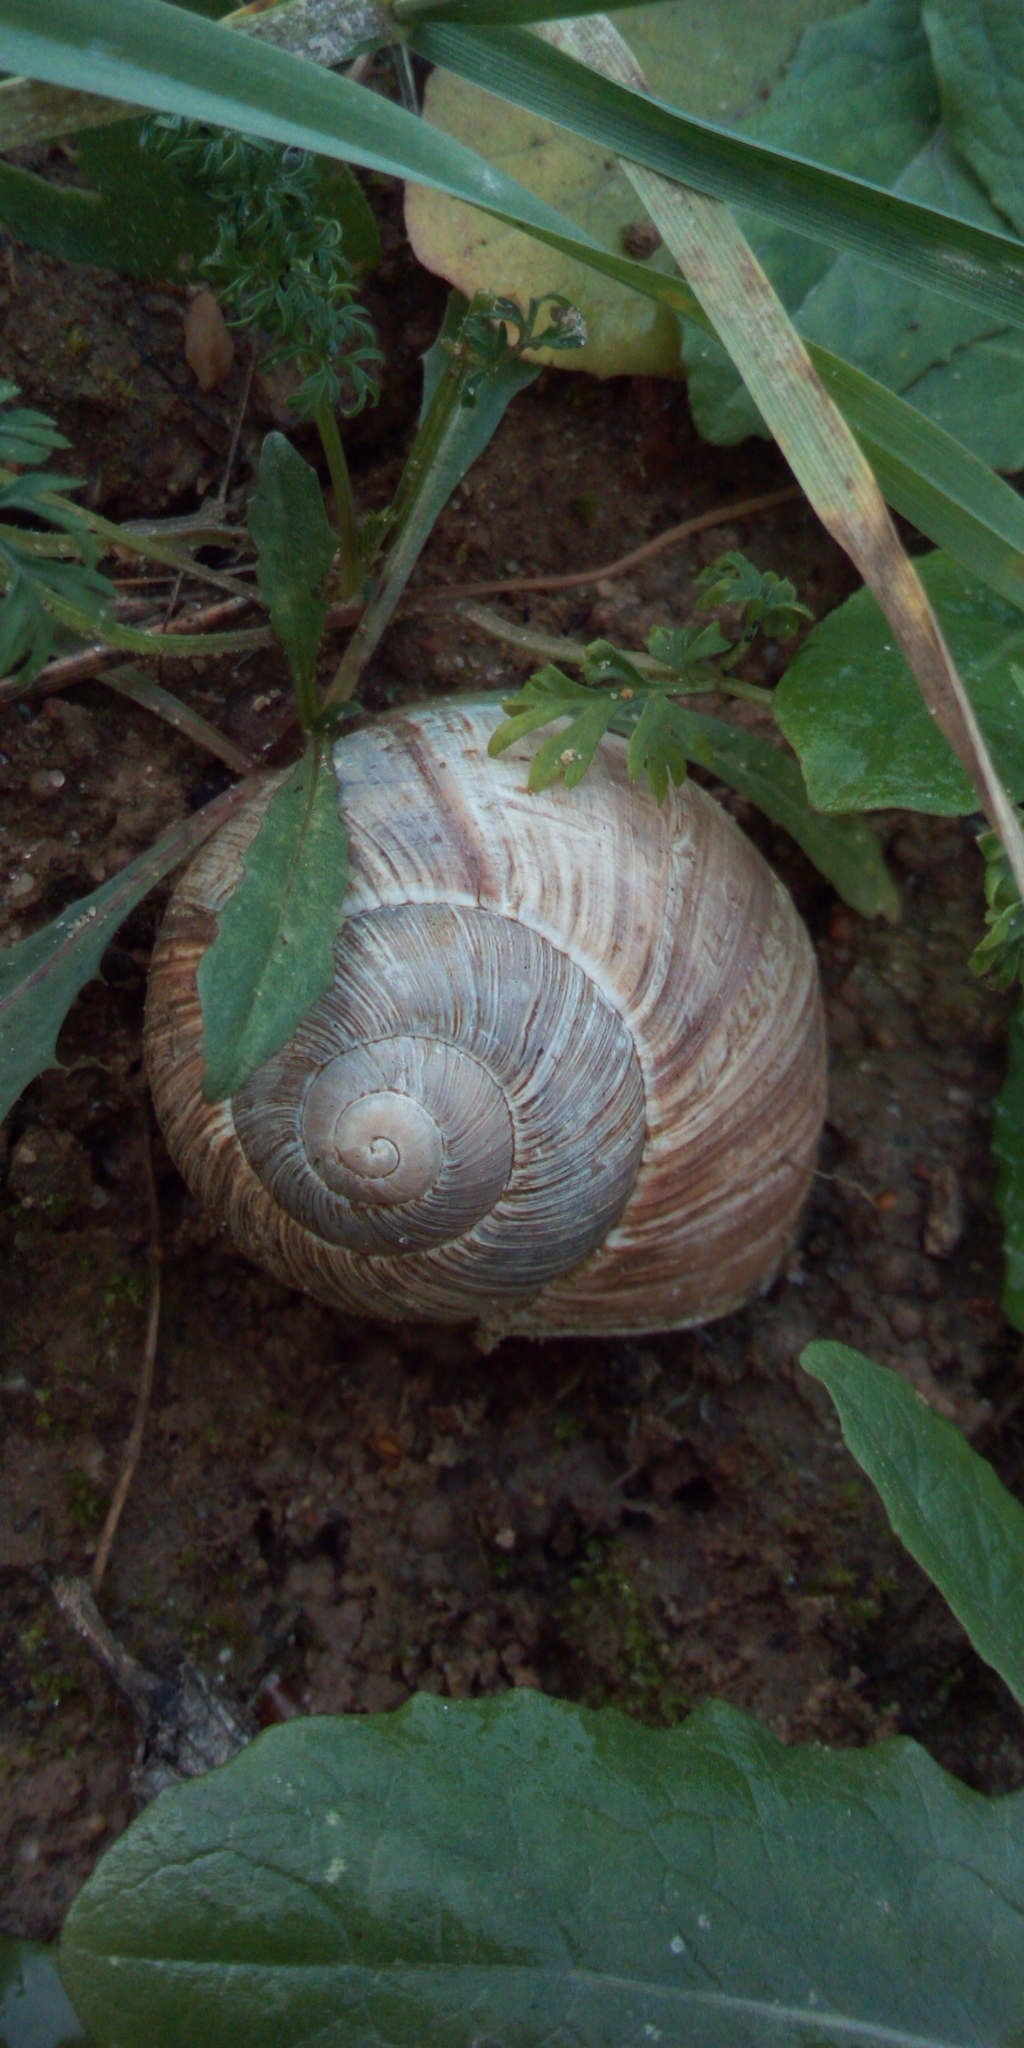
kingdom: Animalia
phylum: Mollusca
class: Gastropoda
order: Stylommatophora
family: Helicidae
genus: Helix
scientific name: Helix pomatia
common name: Roman snail
